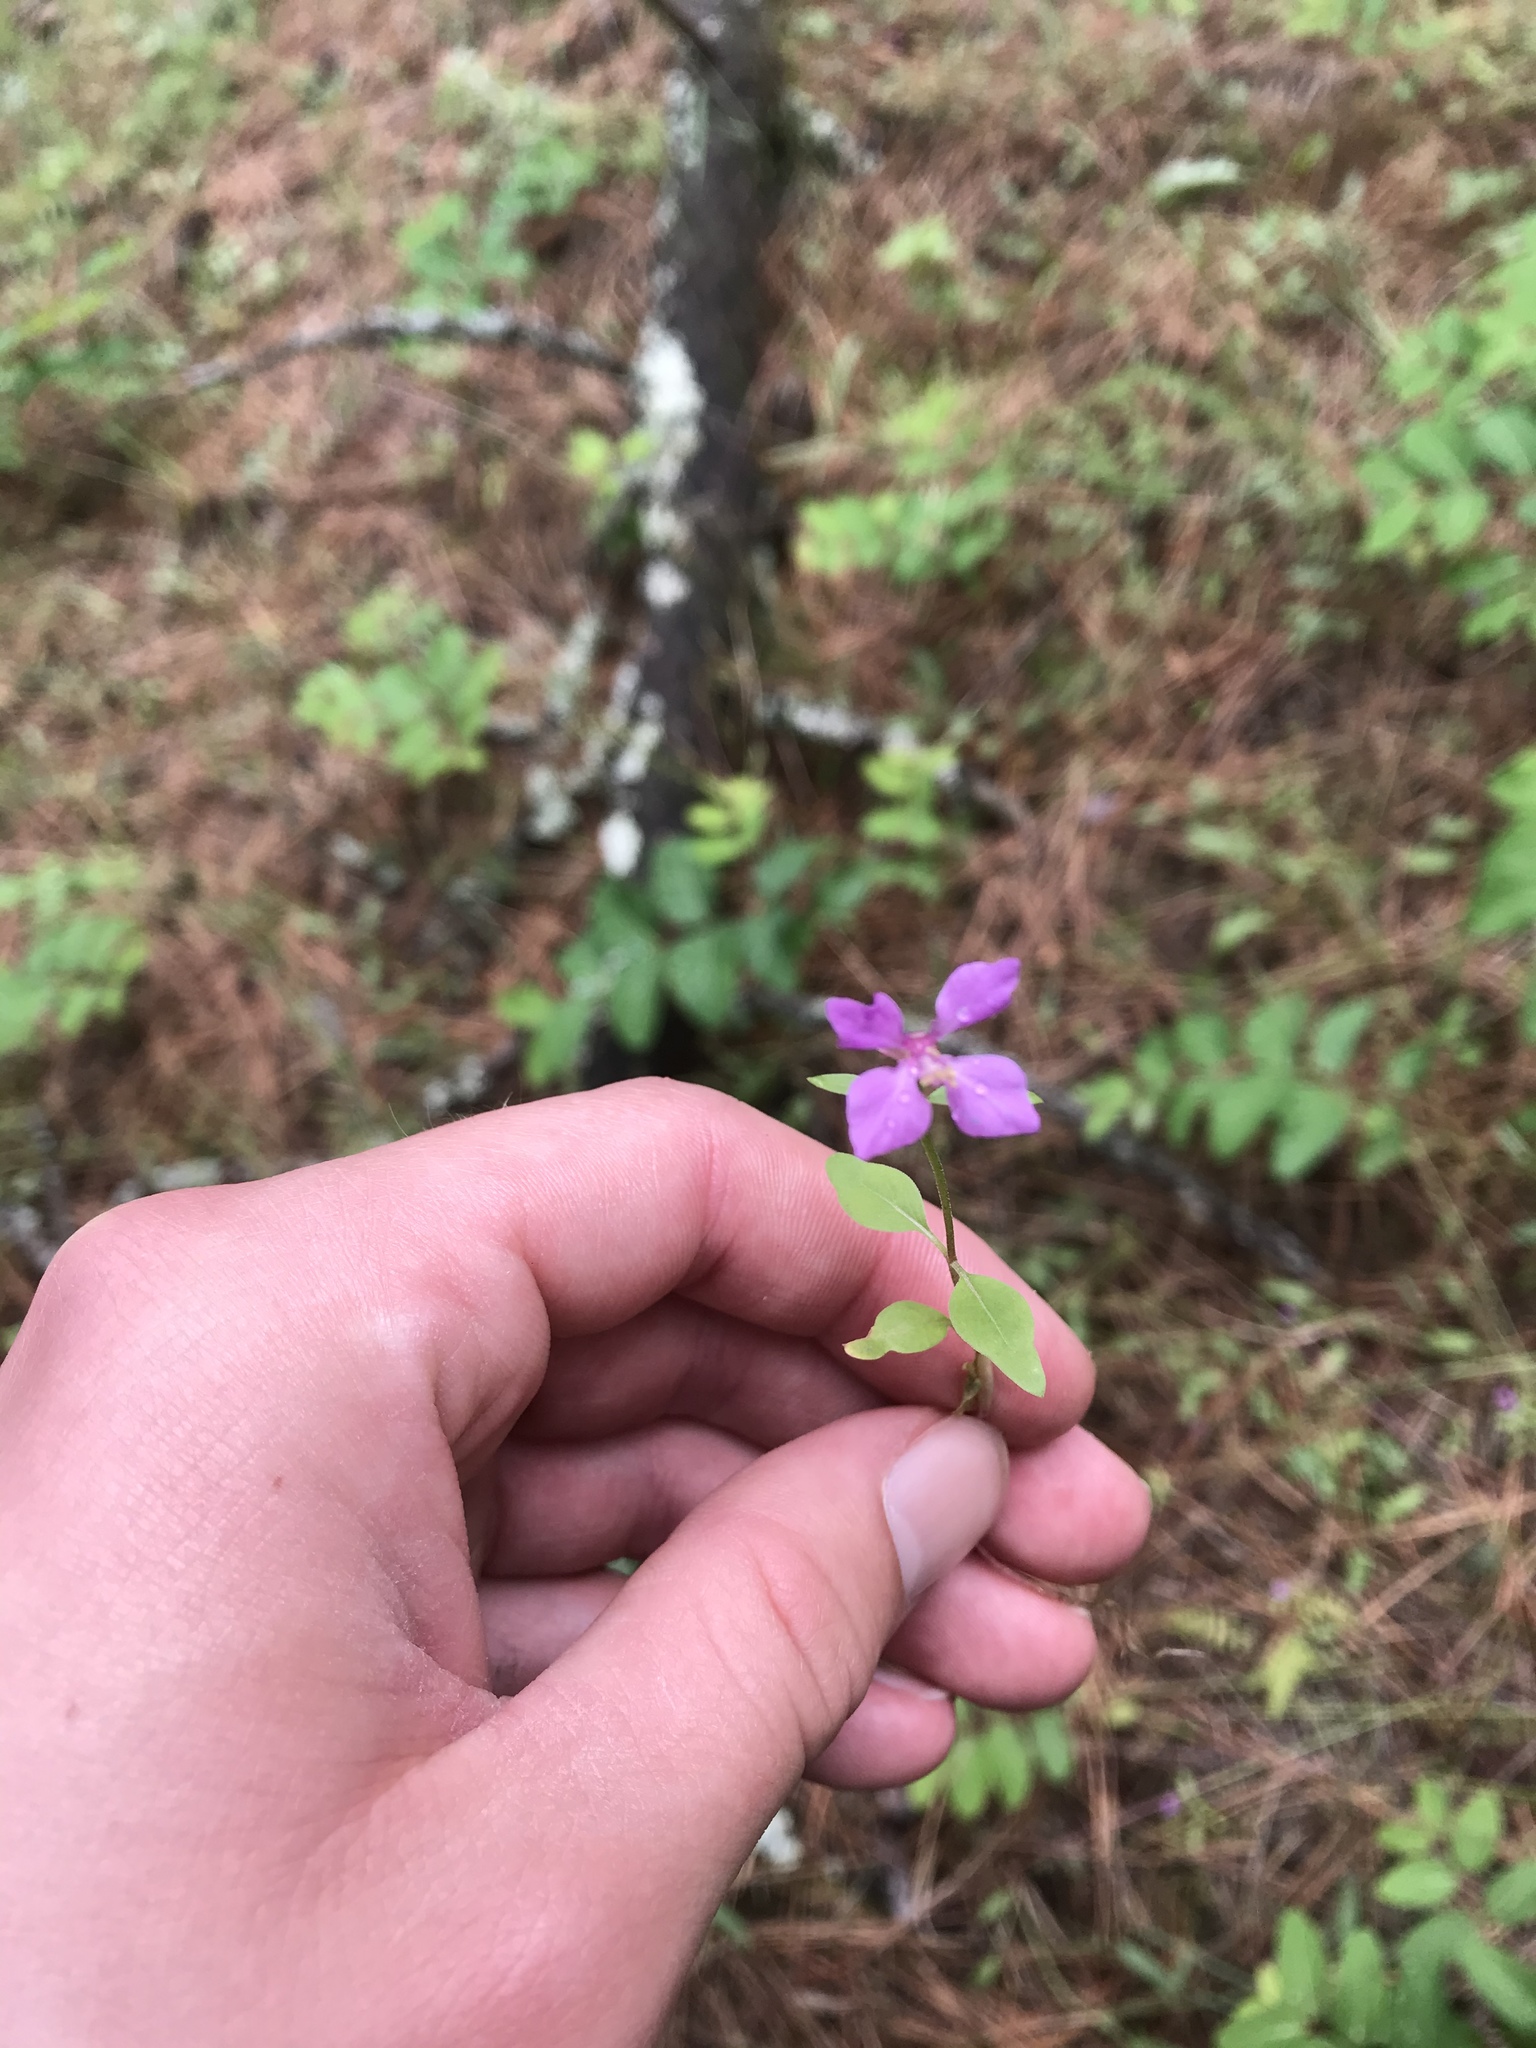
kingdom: Plantae
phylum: Tracheophyta
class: Magnoliopsida
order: Myrtales
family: Onagraceae
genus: Clarkia
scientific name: Clarkia rhomboidea
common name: Broadleaf clarkia
